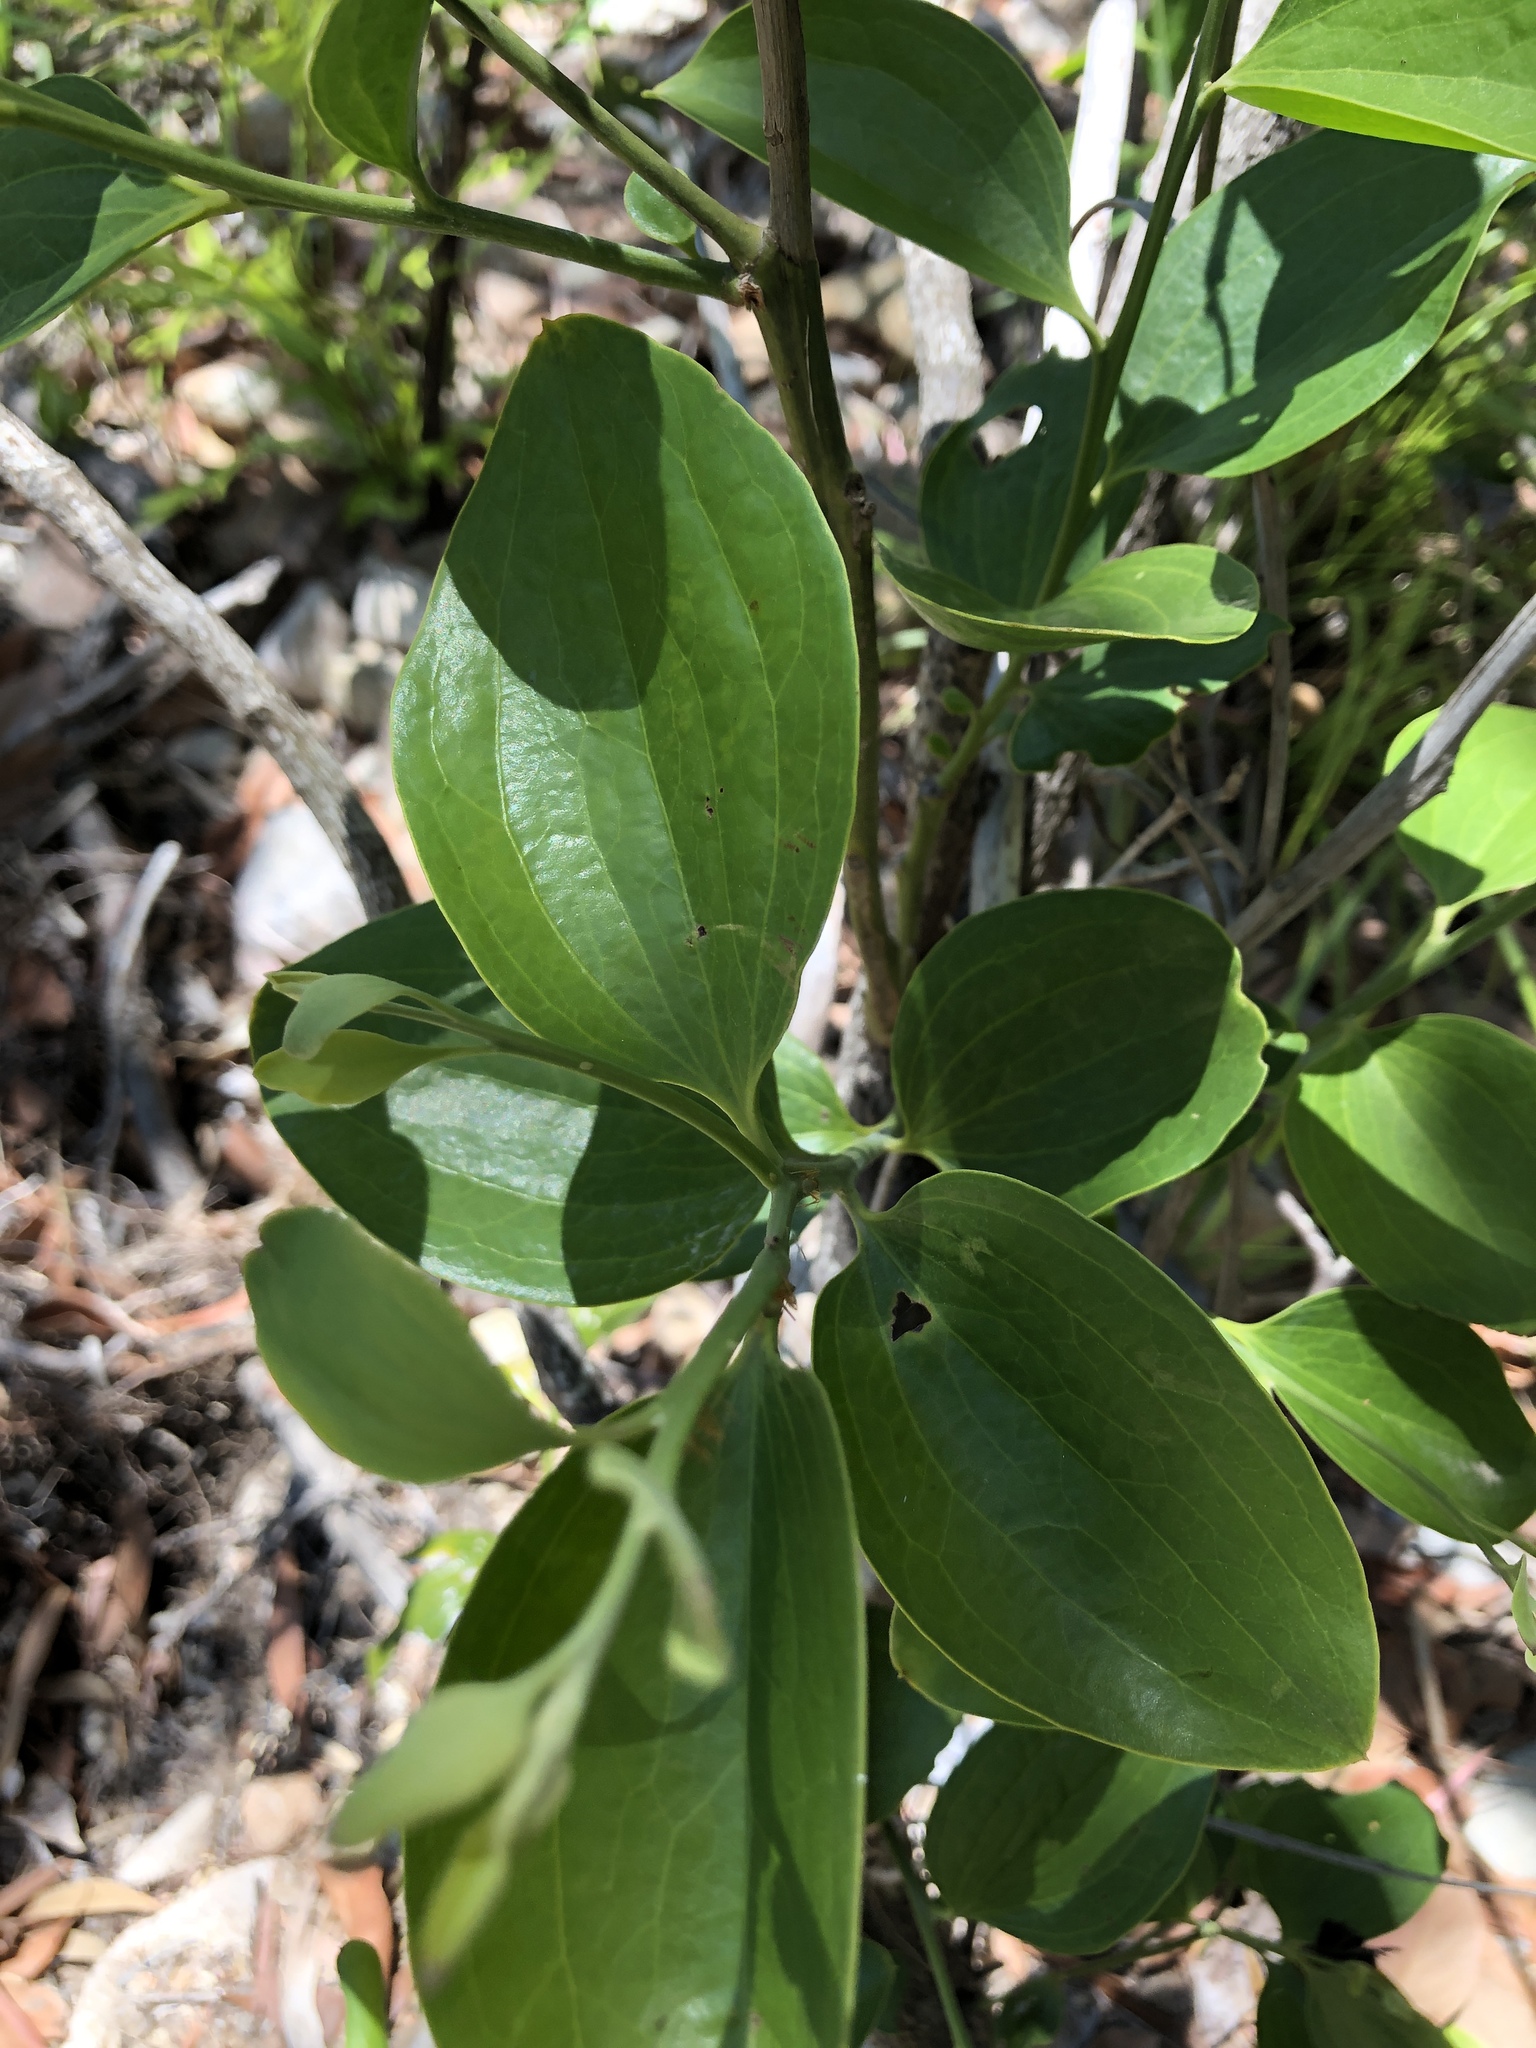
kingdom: Plantae
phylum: Tracheophyta
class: Magnoliopsida
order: Santalales
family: Santalaceae
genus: Exocarpos
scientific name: Exocarpos latifolius
